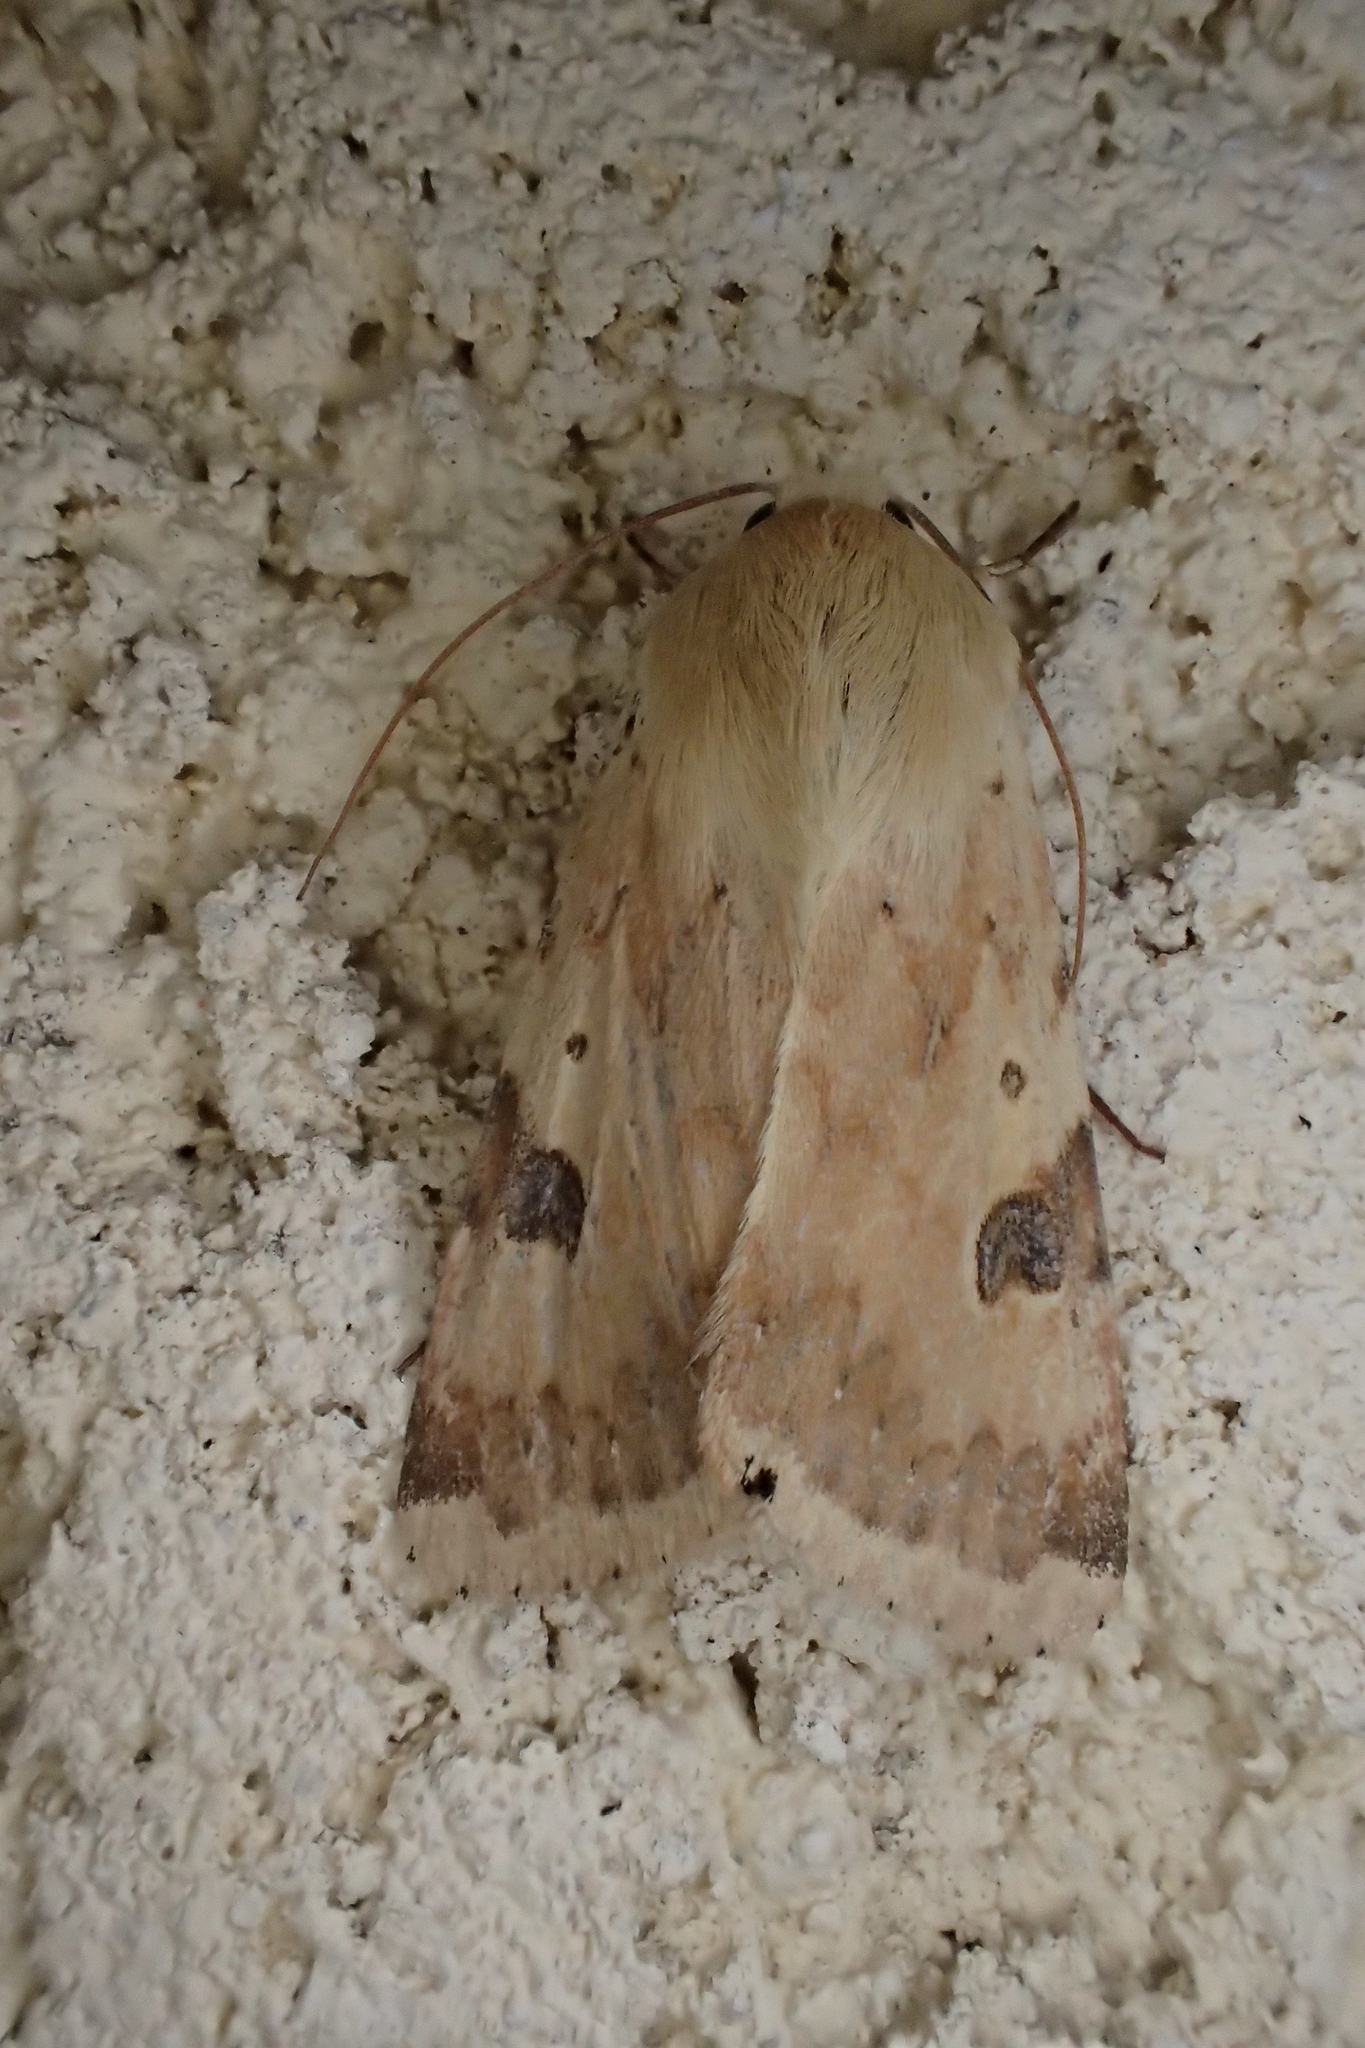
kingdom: Animalia
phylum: Arthropoda
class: Insecta
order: Lepidoptera
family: Noctuidae
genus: Heliothis
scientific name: Heliothis peltigera
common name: Bordered straw
